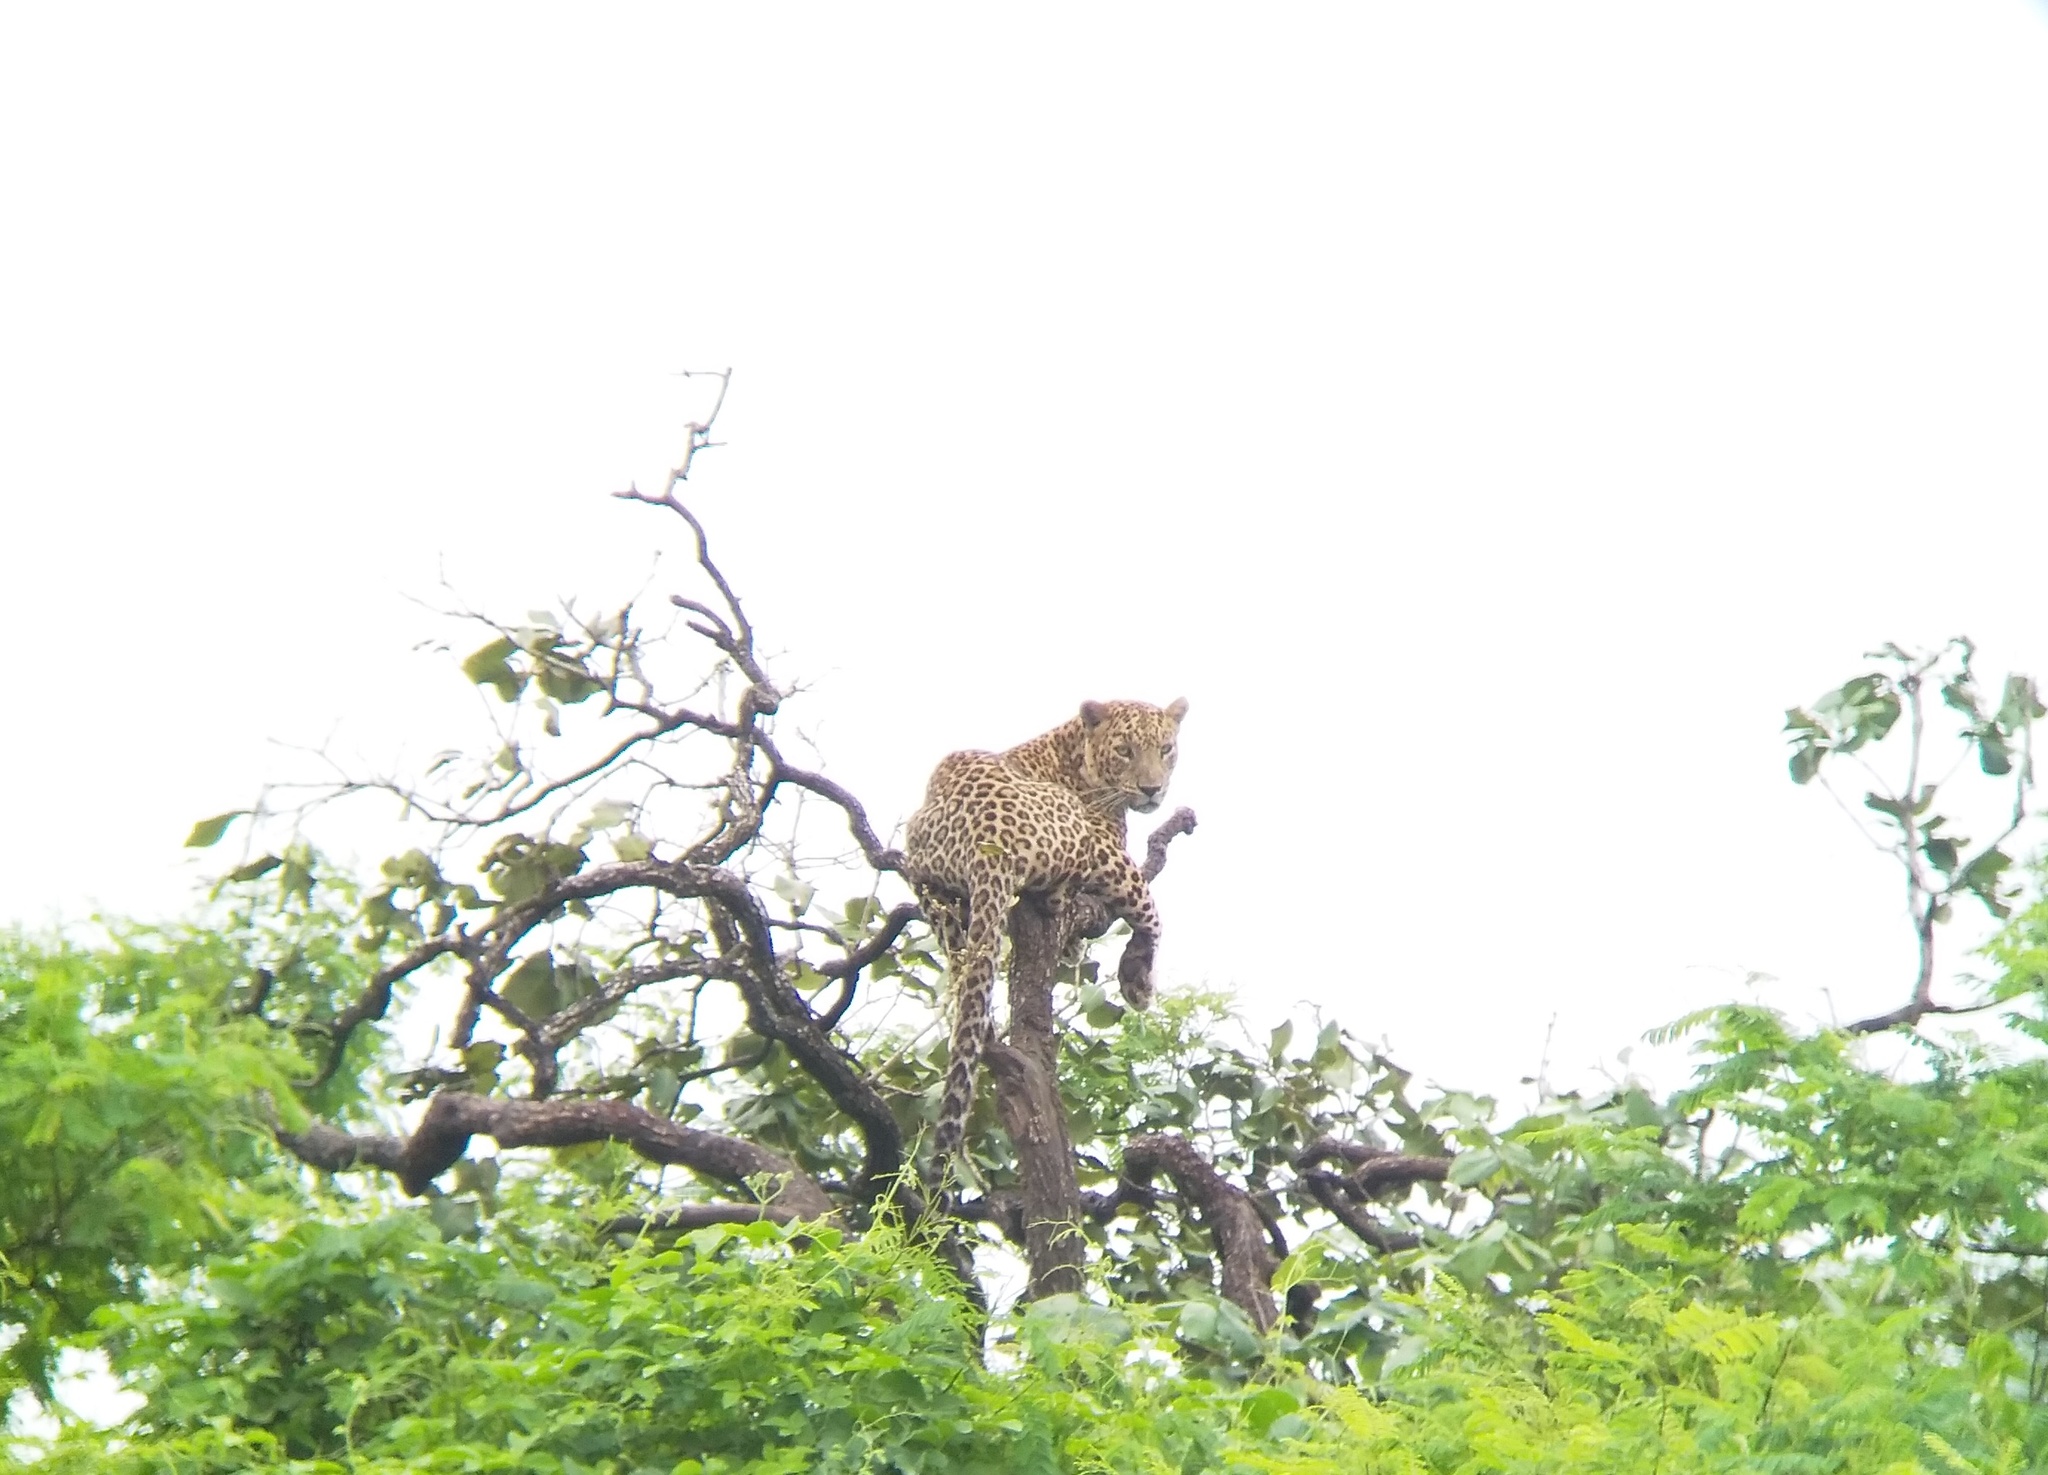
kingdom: Animalia
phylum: Chordata
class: Mammalia
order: Carnivora
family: Felidae
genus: Panthera
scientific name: Panthera pardus
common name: Leopard
